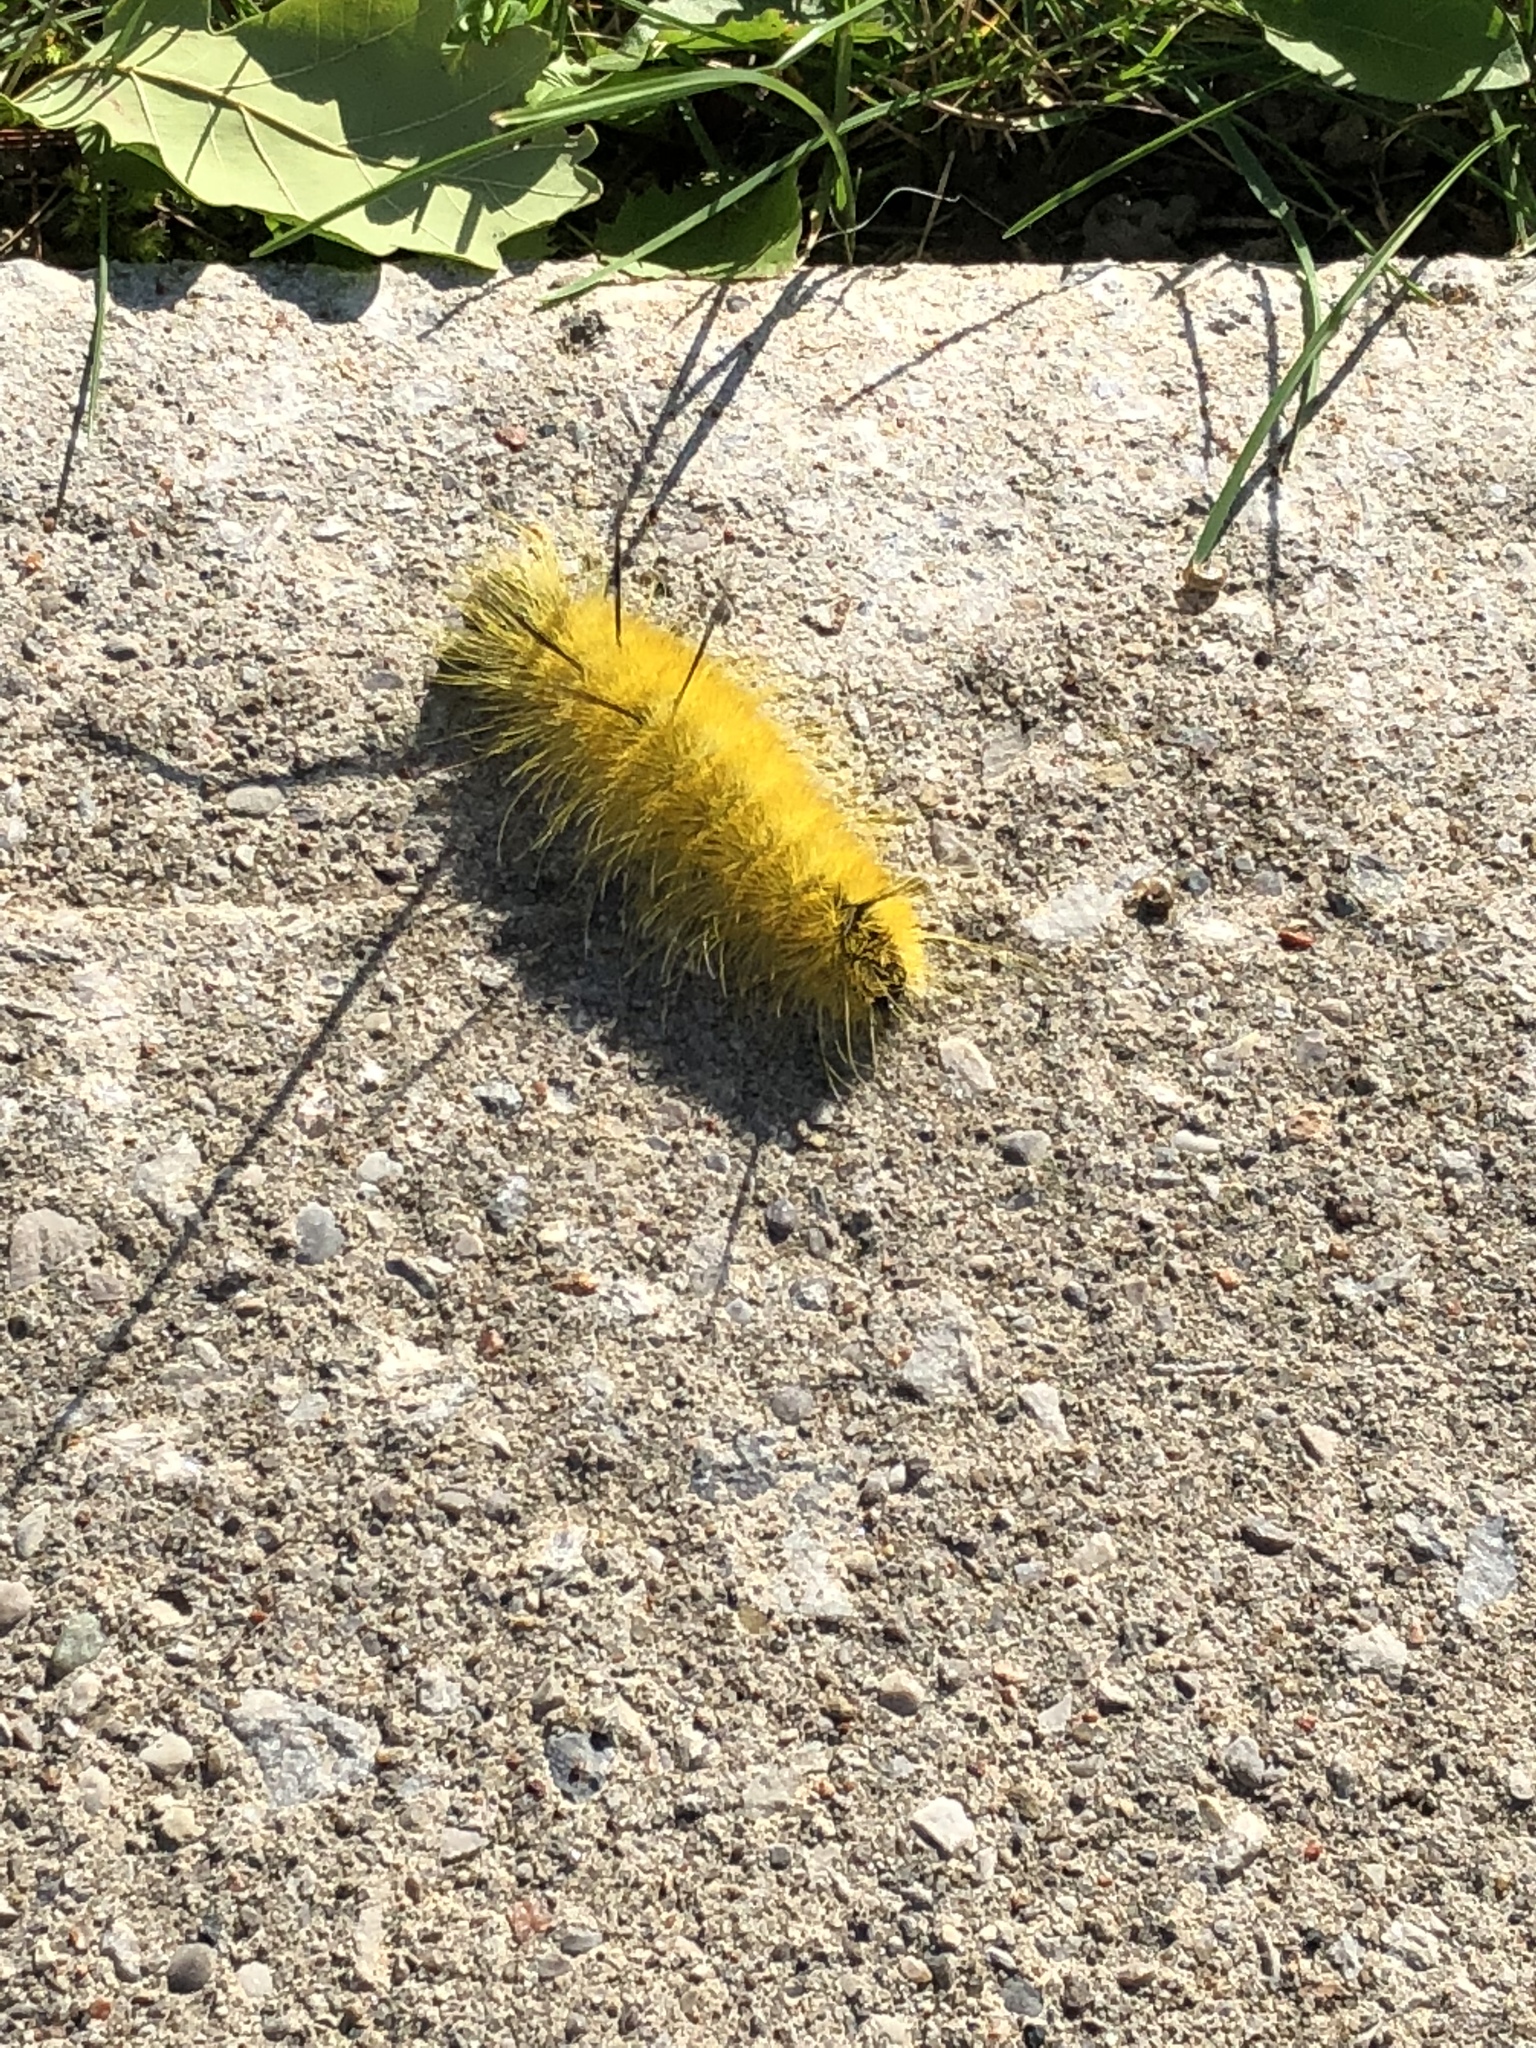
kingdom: Animalia
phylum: Arthropoda
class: Insecta
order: Lepidoptera
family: Noctuidae
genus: Acronicta
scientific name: Acronicta americana
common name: American dagger
